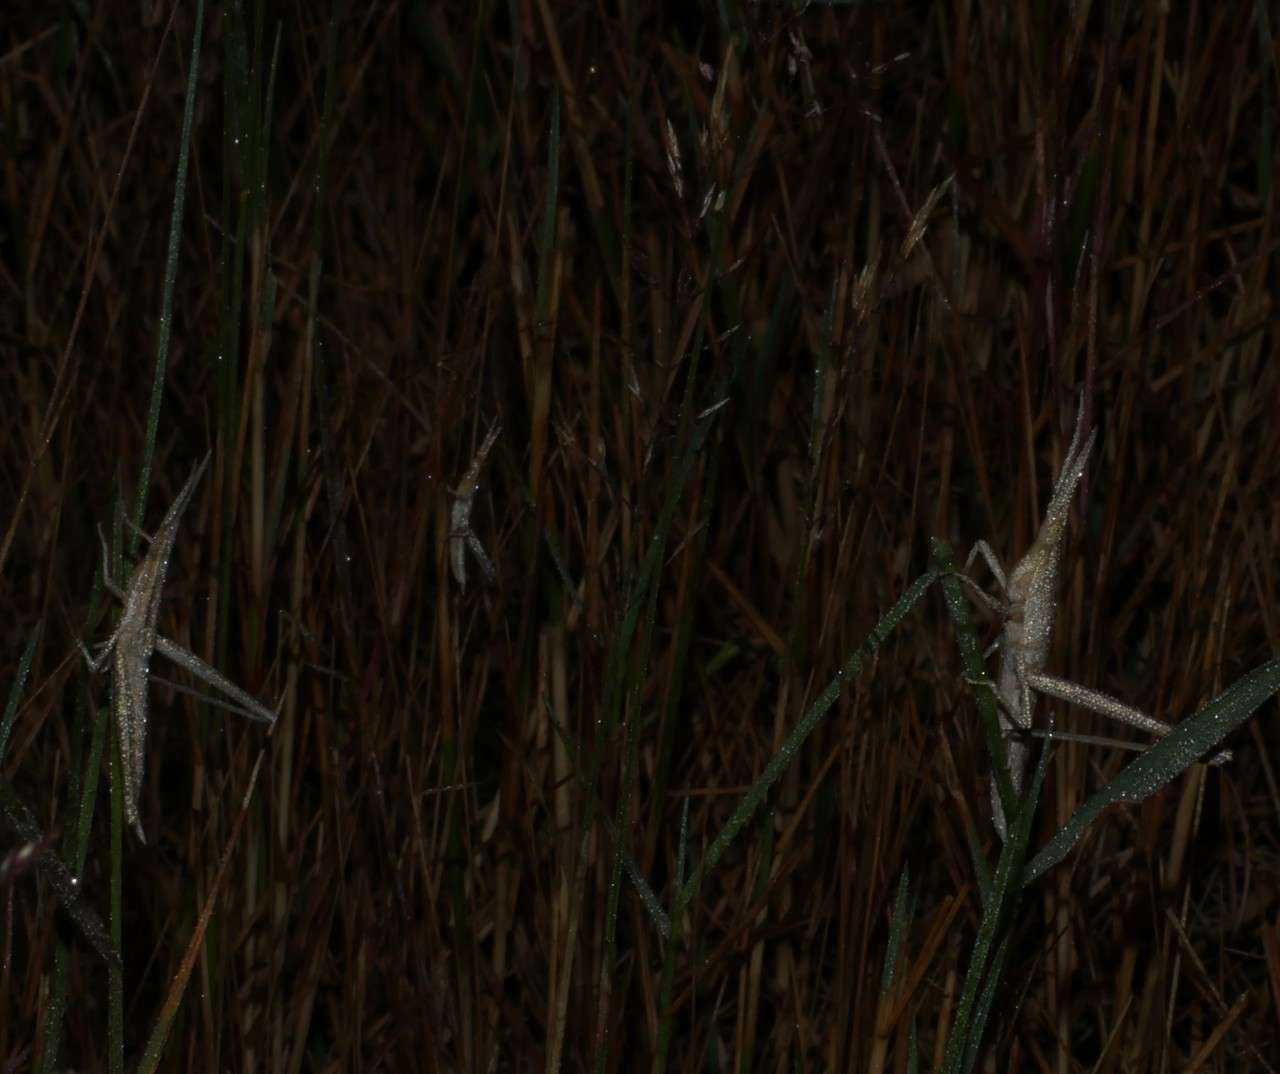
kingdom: Animalia
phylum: Arthropoda
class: Insecta
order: Orthoptera
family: Acrididae
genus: Acrida
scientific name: Acrida conica
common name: Giant green slantface
